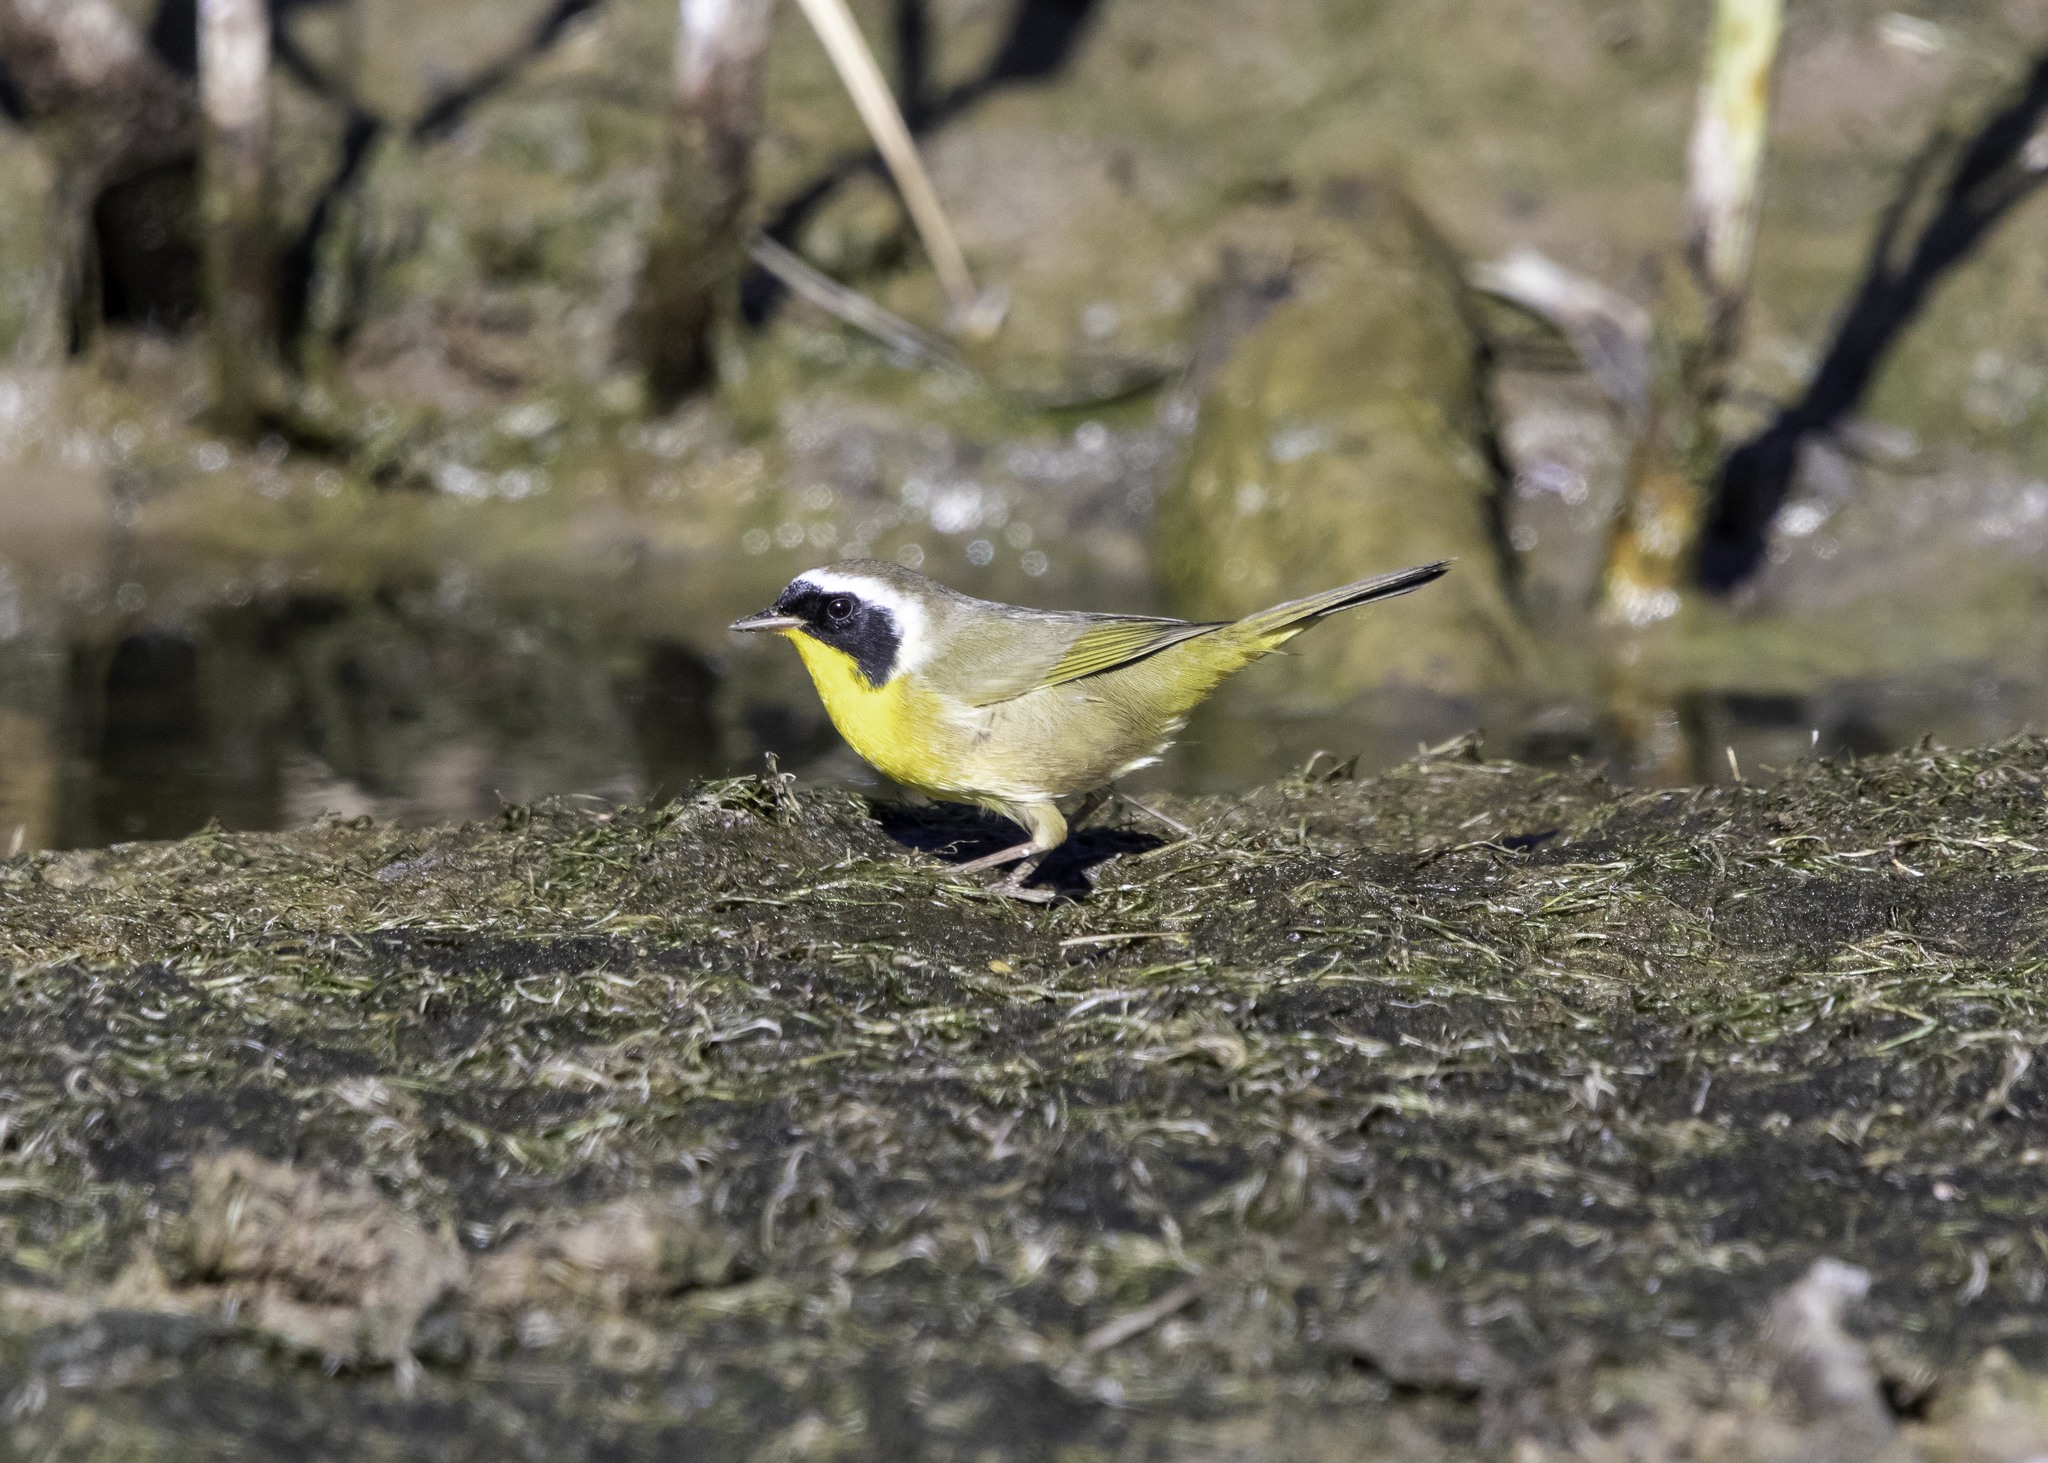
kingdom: Animalia
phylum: Chordata
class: Aves
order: Passeriformes
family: Parulidae
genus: Geothlypis
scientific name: Geothlypis trichas
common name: Common yellowthroat
